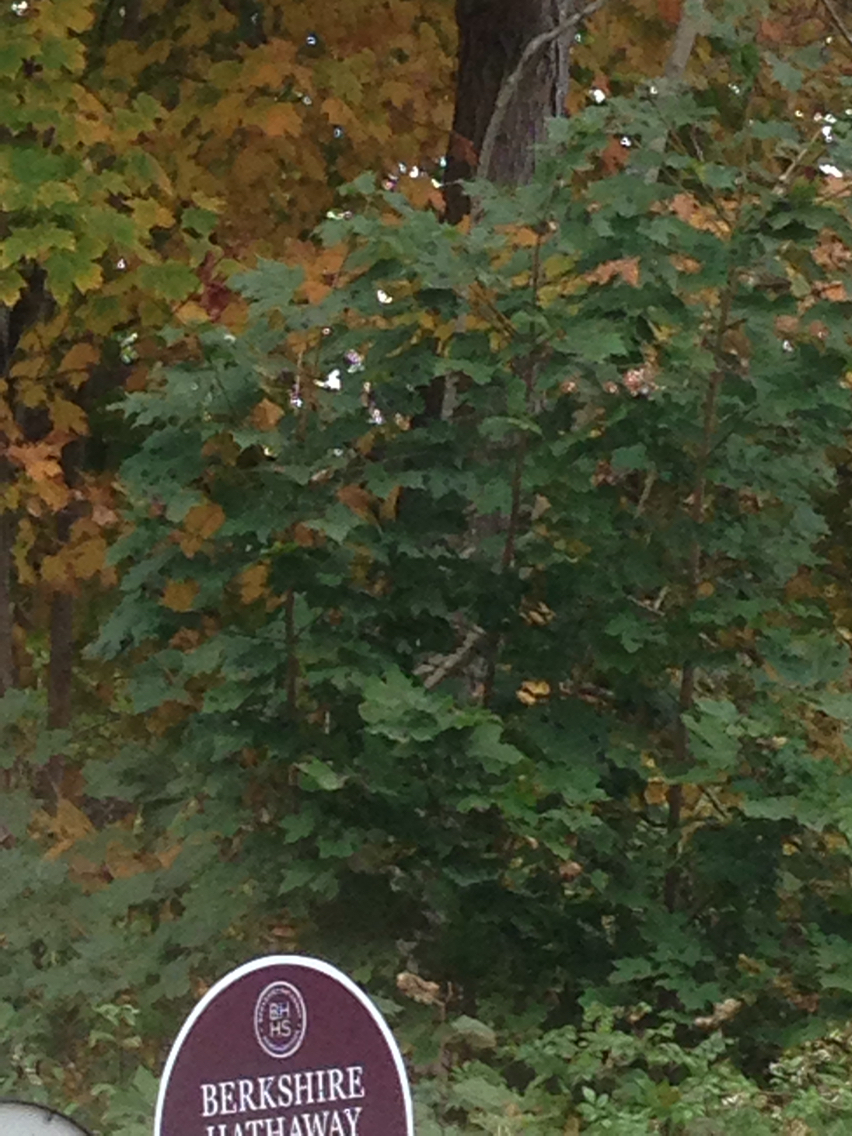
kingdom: Plantae
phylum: Tracheophyta
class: Magnoliopsida
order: Sapindales
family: Sapindaceae
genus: Acer
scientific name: Acer platanoides
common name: Norway maple
